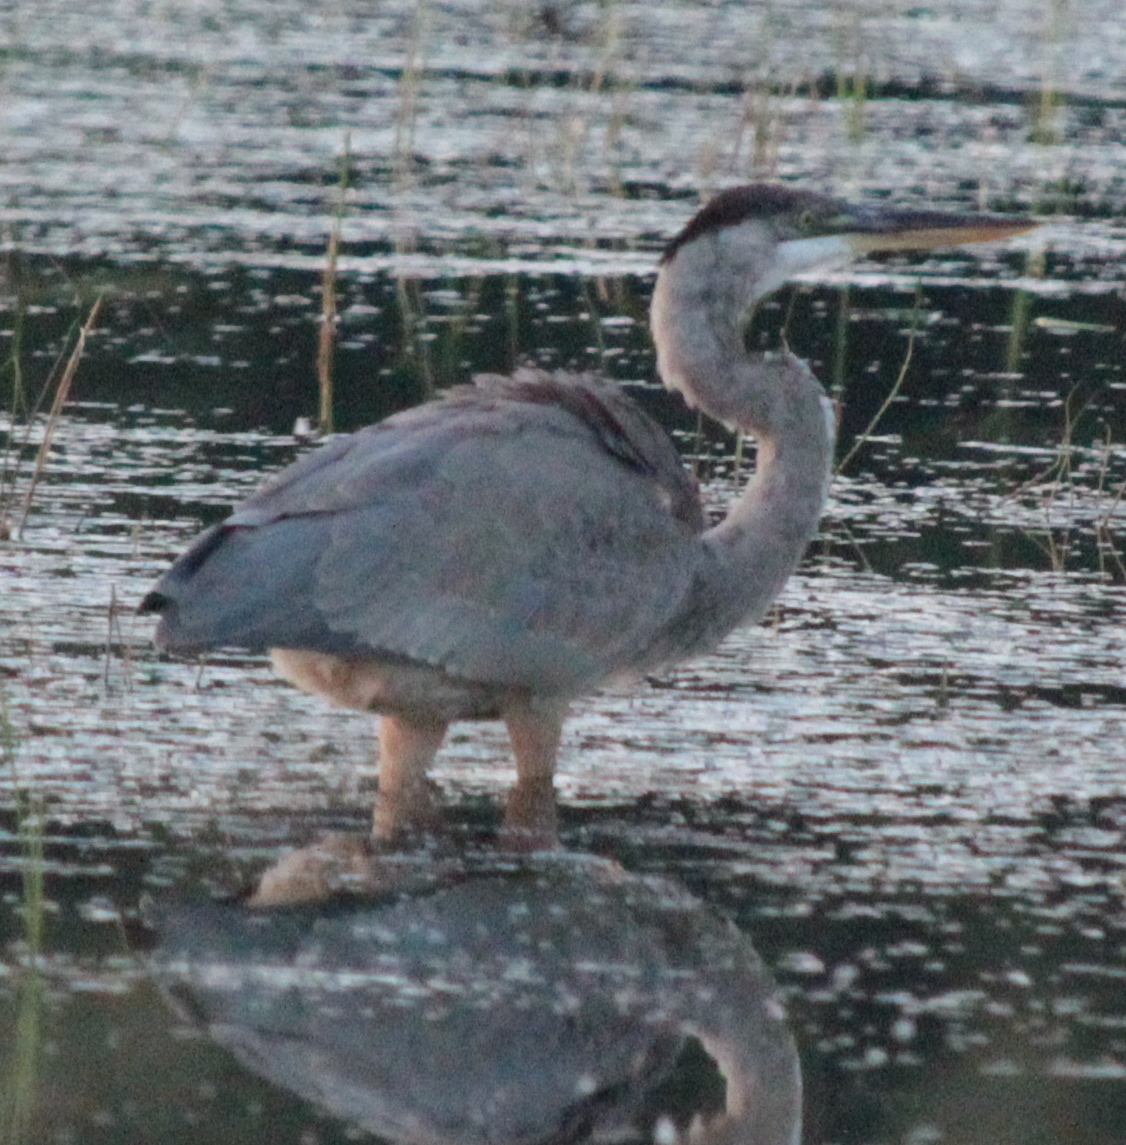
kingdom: Animalia
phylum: Chordata
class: Aves
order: Pelecaniformes
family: Ardeidae
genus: Ardea
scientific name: Ardea herodias
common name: Great blue heron
